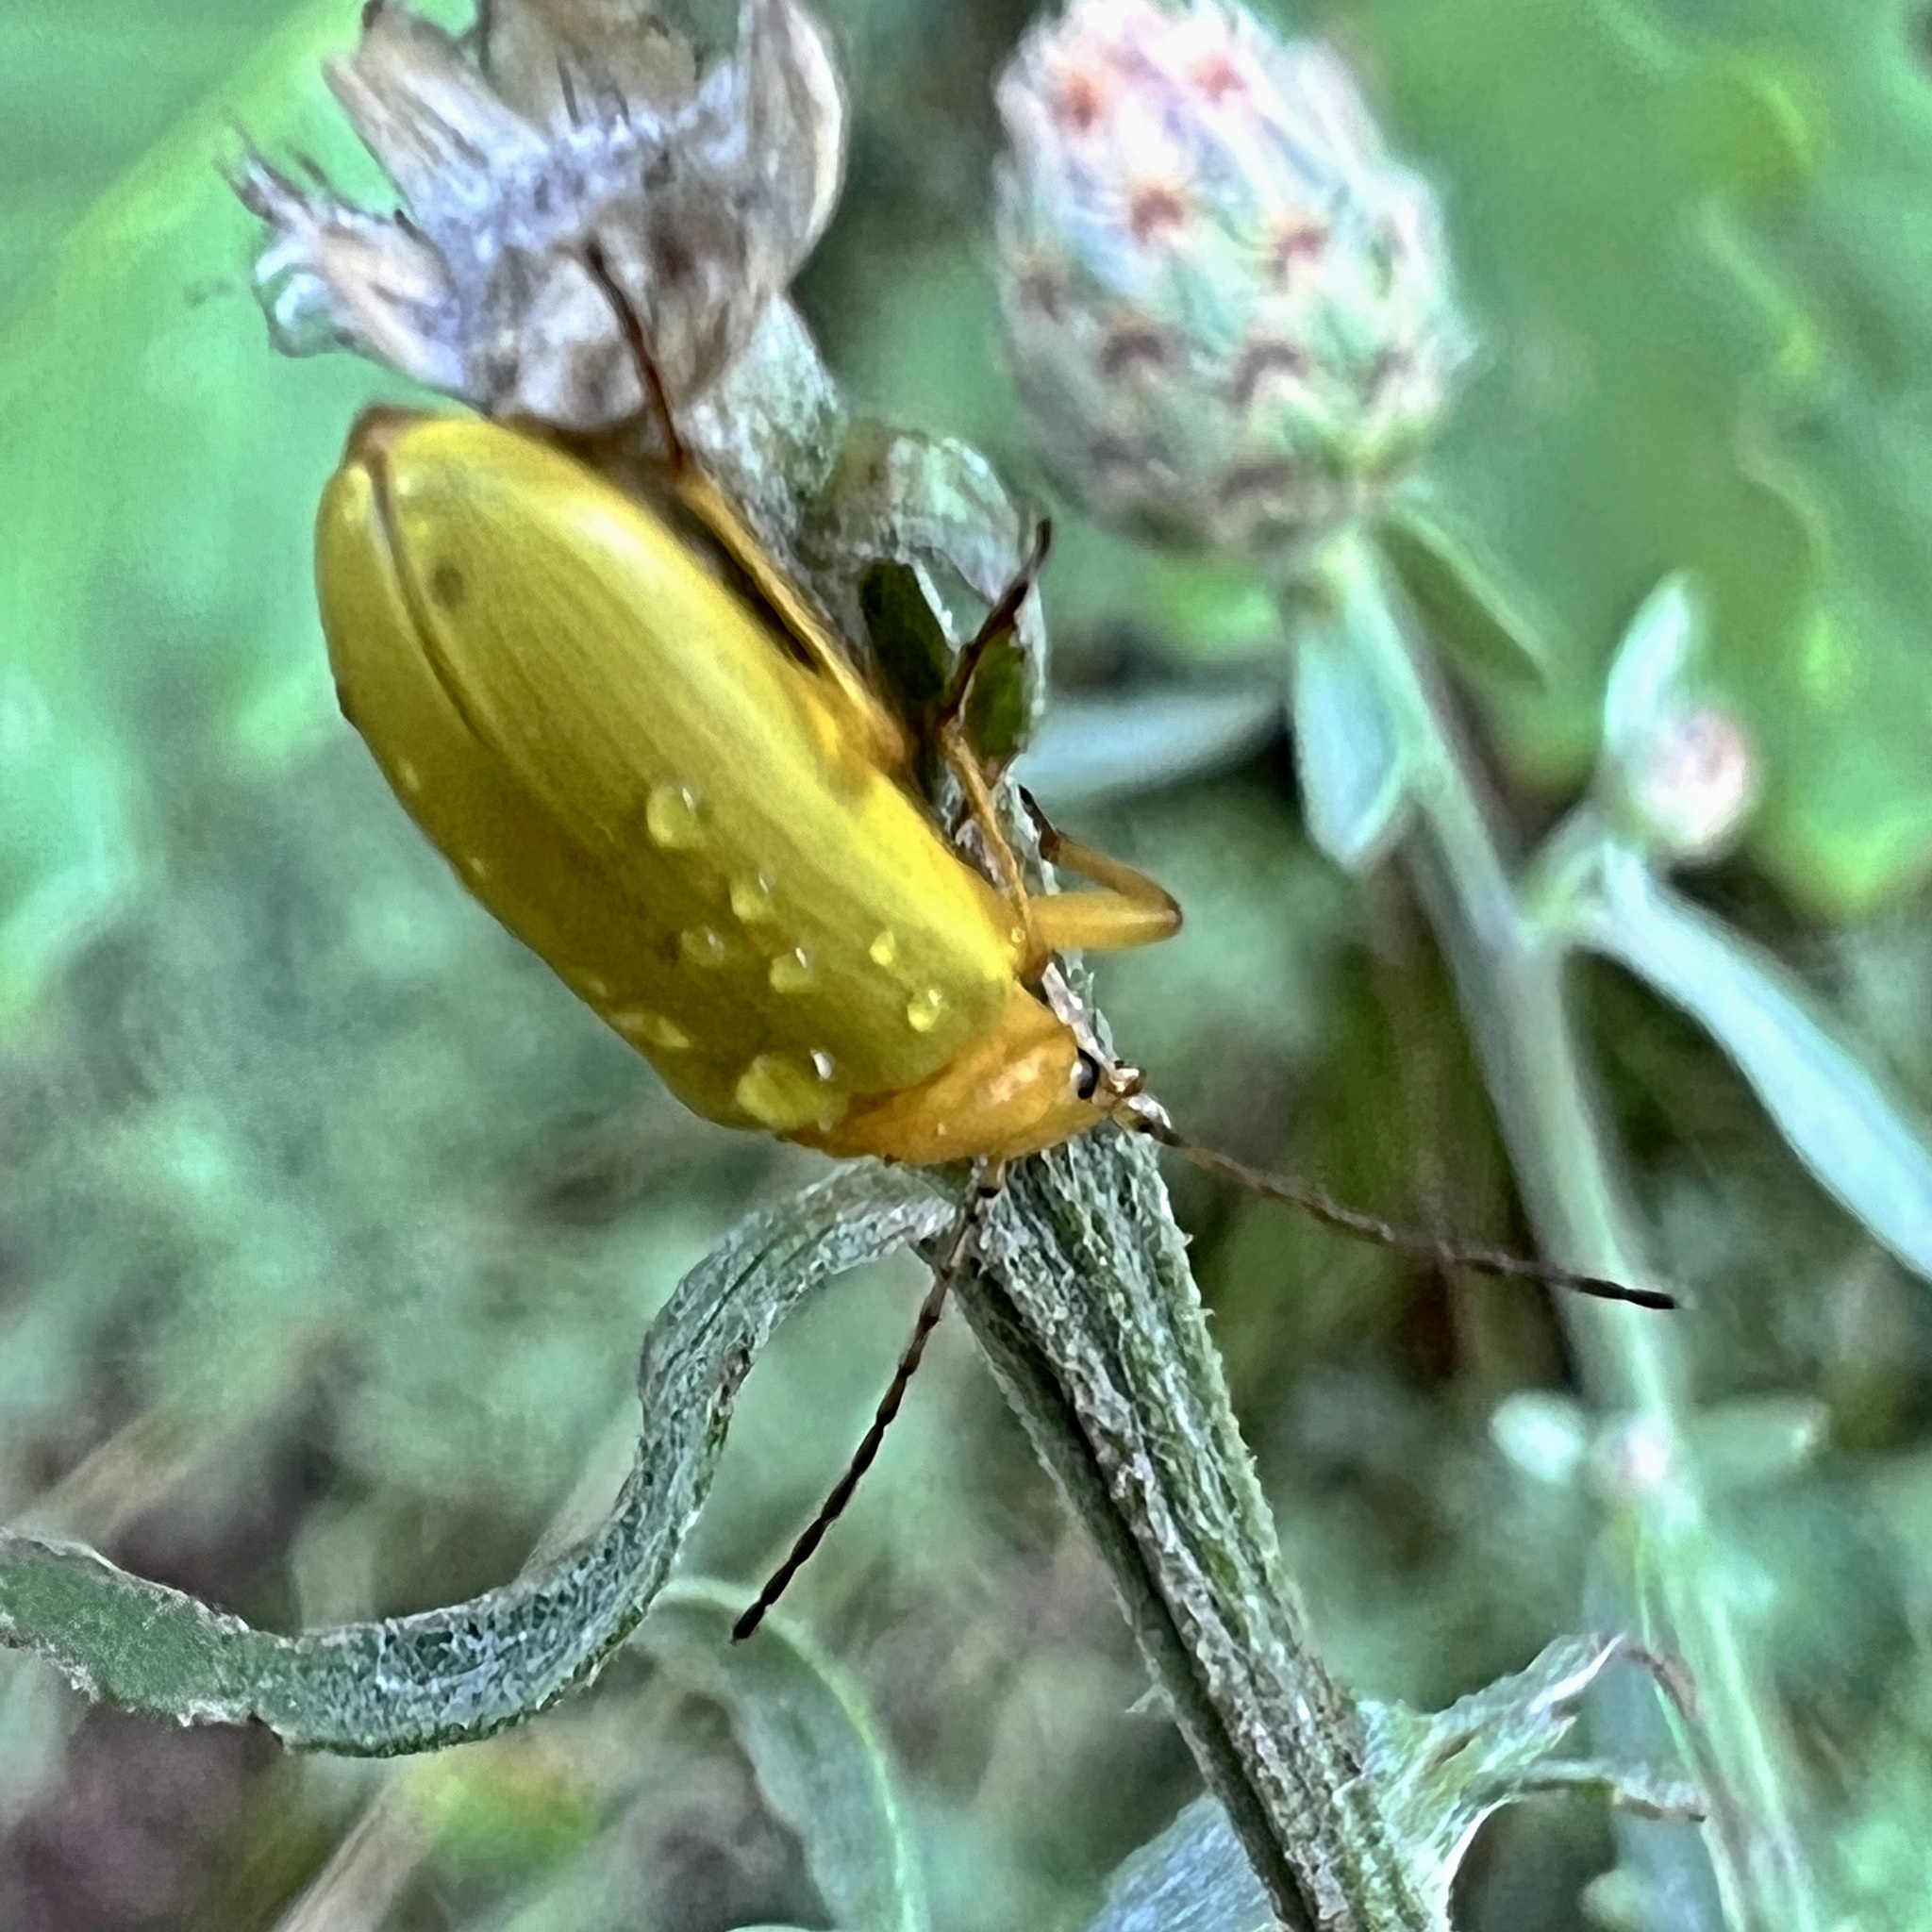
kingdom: Animalia
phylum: Arthropoda
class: Insecta
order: Coleoptera
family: Tenebrionidae
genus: Cteniopus
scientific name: Cteniopus sulphureus
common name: Sulphur beetle
